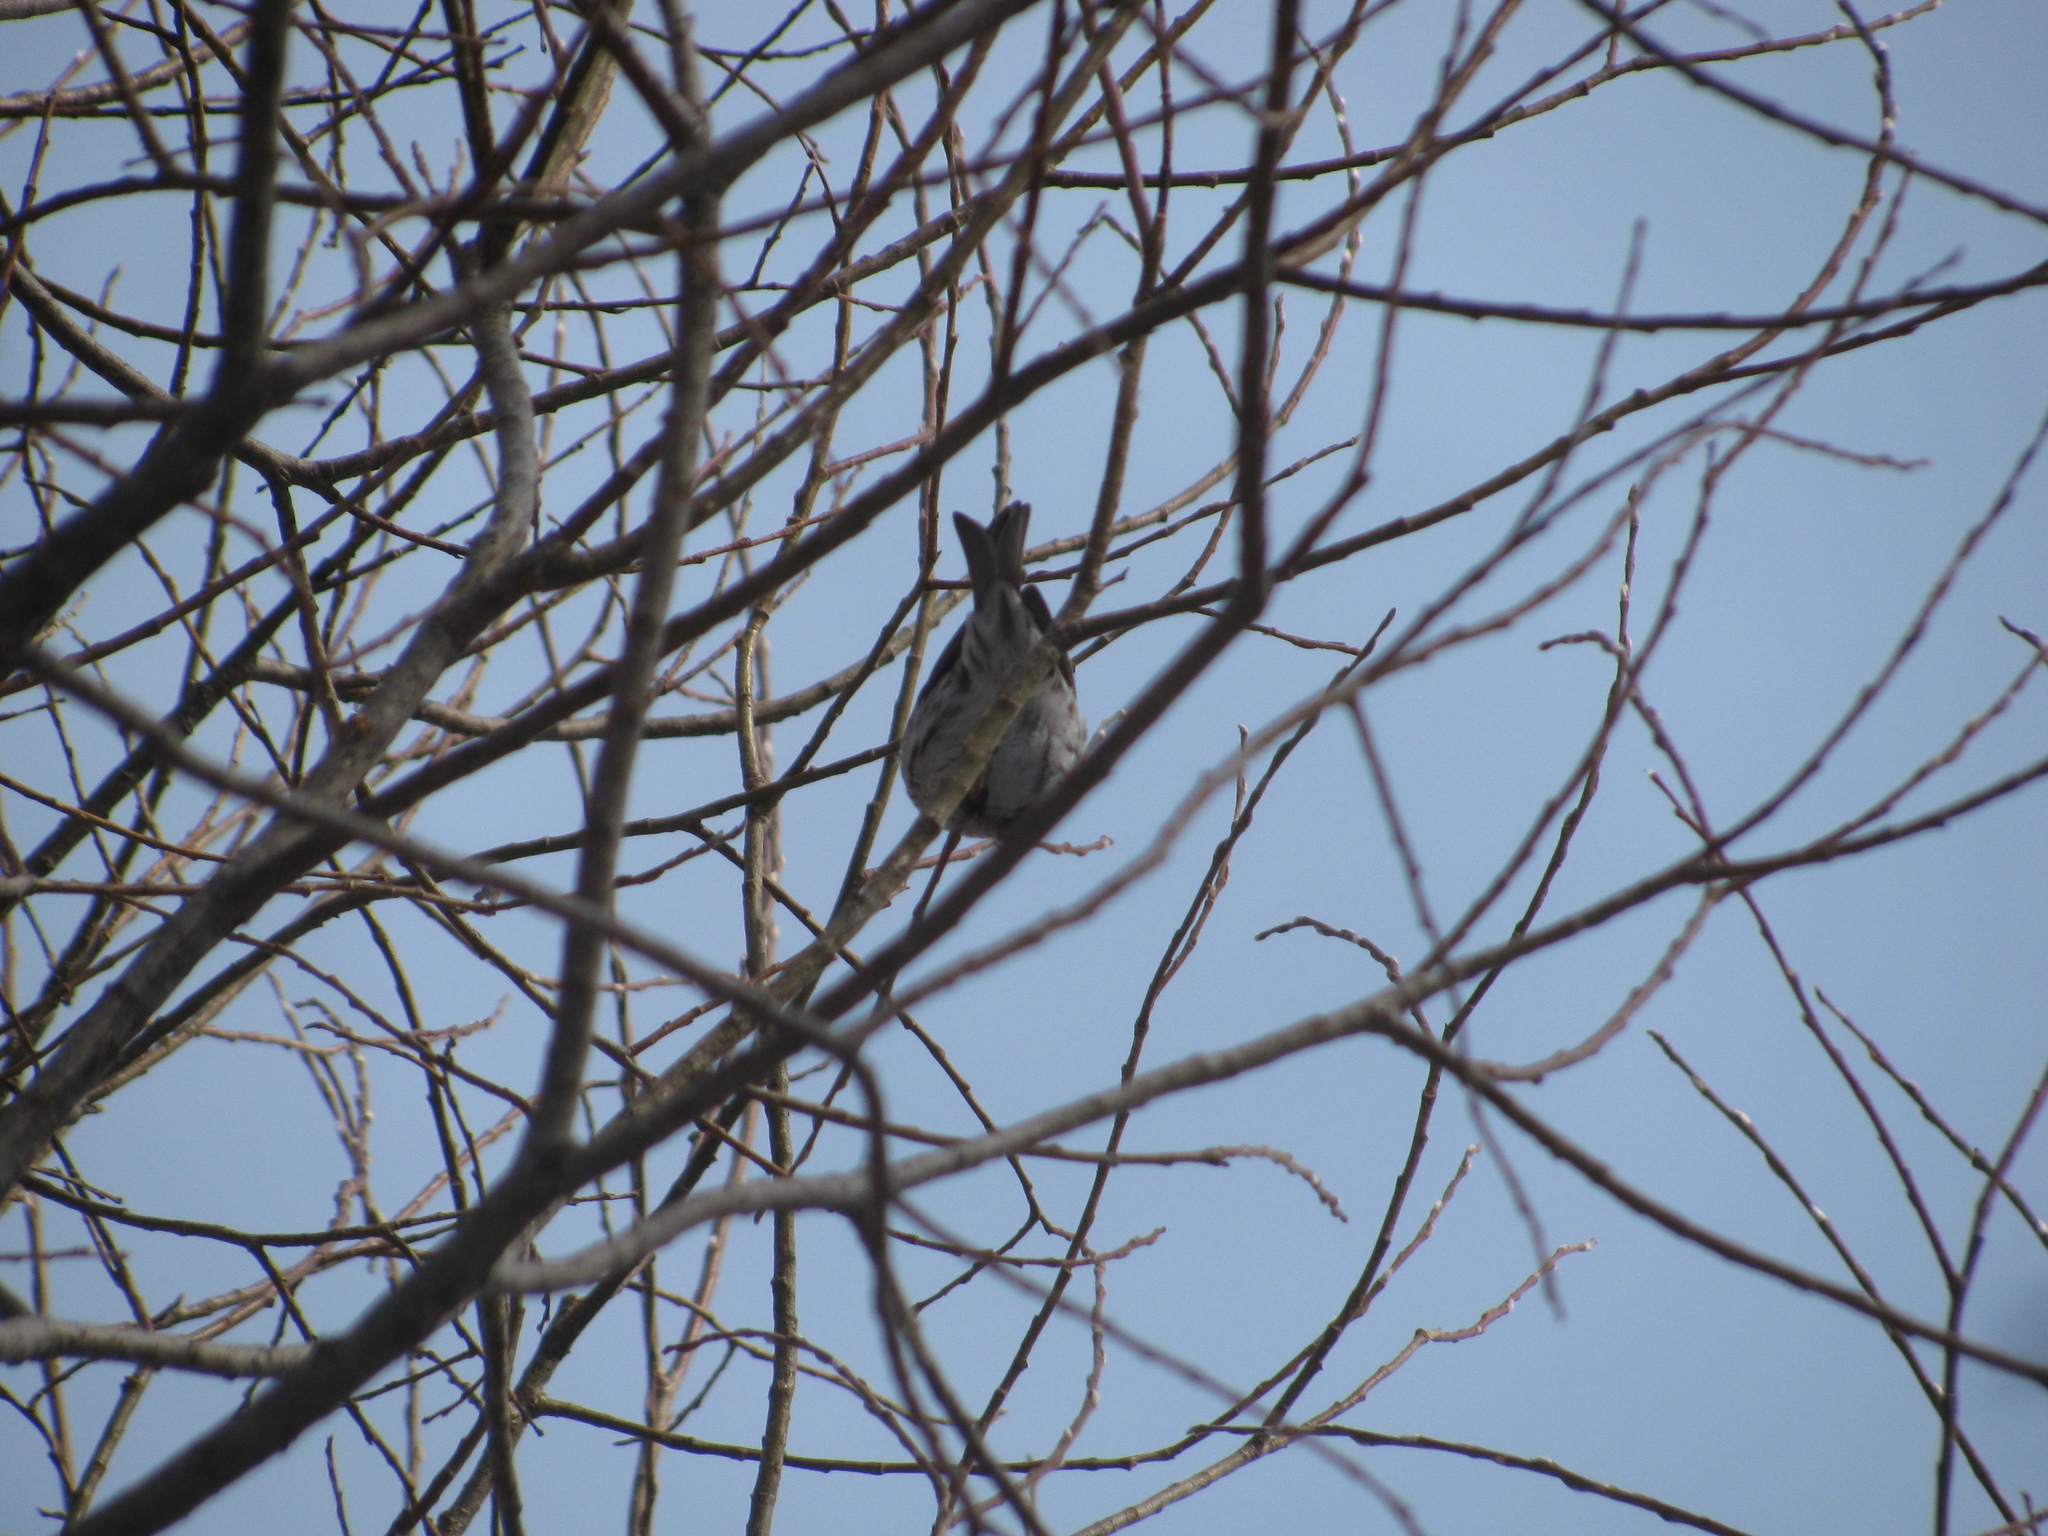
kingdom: Animalia
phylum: Chordata
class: Aves
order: Passeriformes
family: Fringillidae
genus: Acanthis
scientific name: Acanthis flammea
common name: Common redpoll
